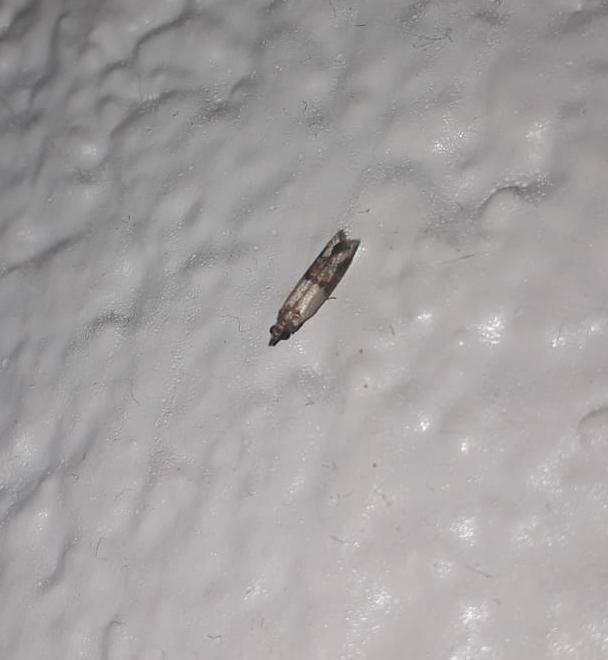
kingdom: Animalia
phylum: Arthropoda
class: Insecta
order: Lepidoptera
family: Pyralidae
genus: Plodia
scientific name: Plodia interpunctella
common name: Indian meal moth
